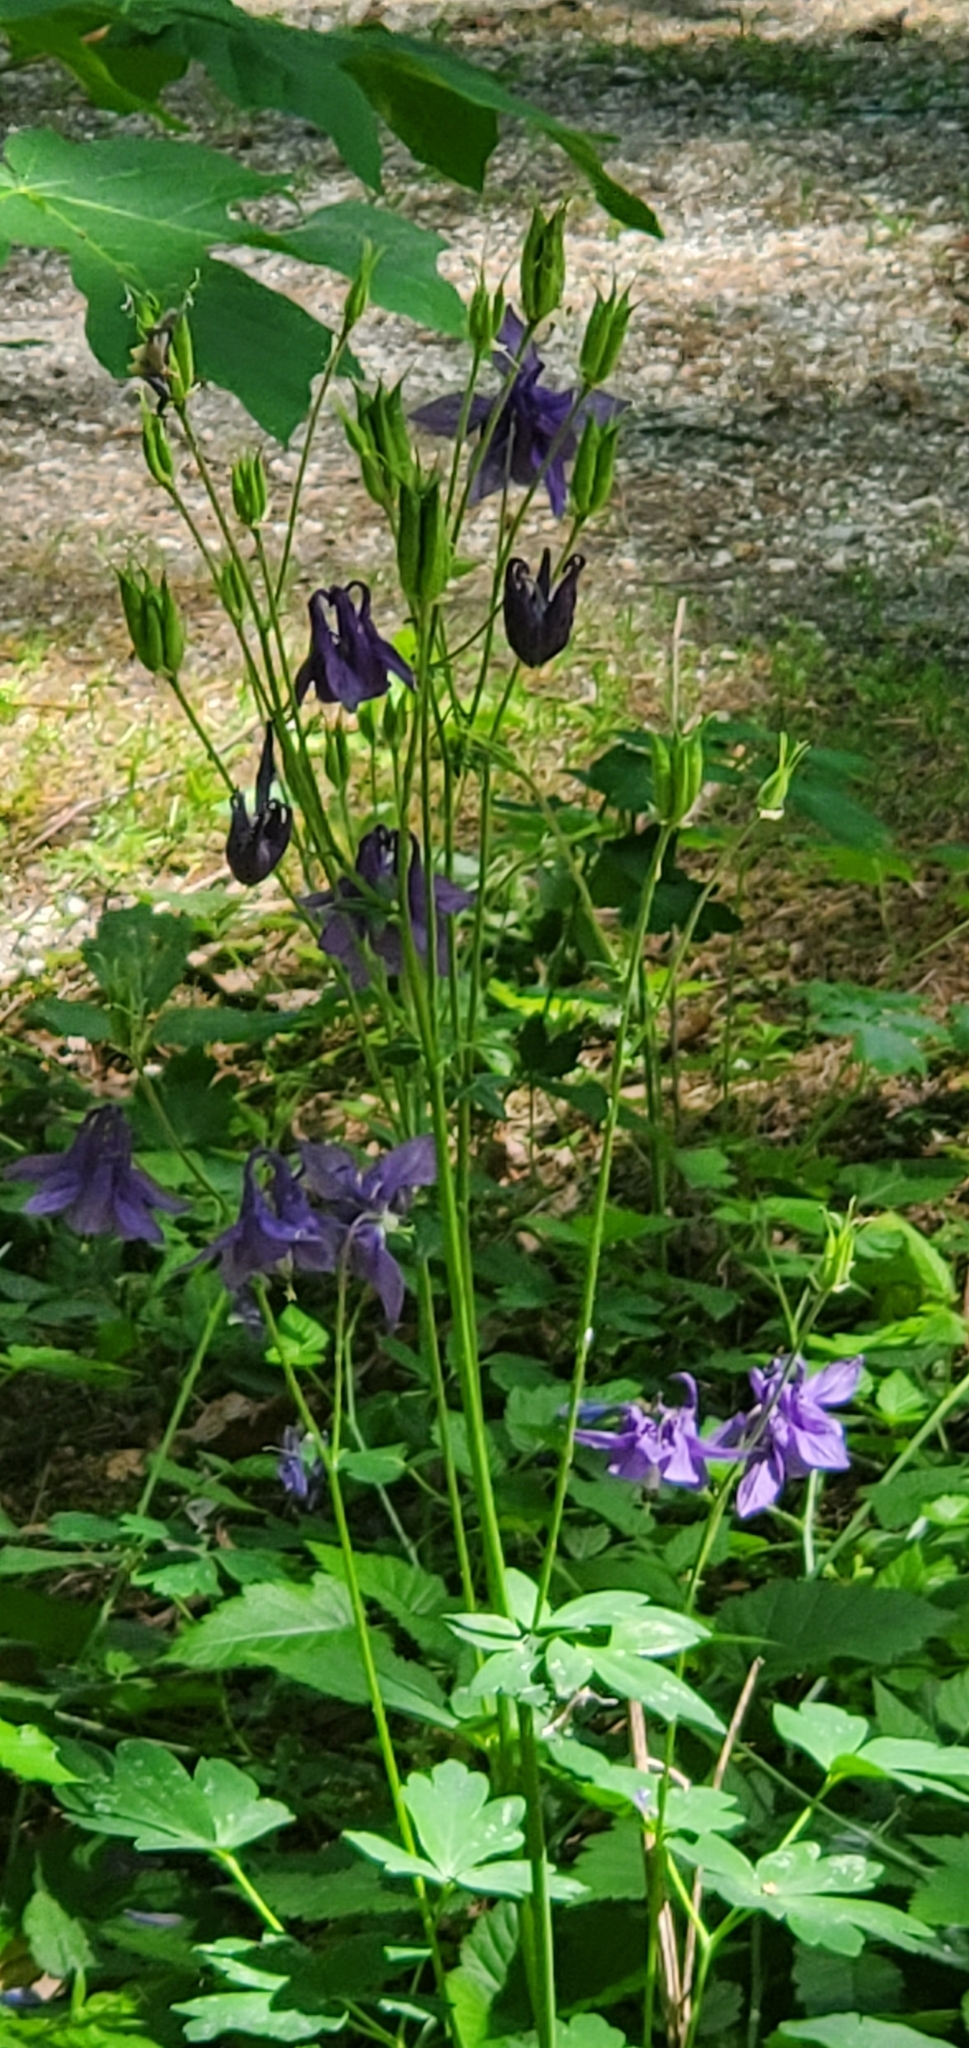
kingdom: Plantae
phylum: Tracheophyta
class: Magnoliopsida
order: Ranunculales
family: Ranunculaceae
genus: Aquilegia
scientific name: Aquilegia vulgaris
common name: Columbine
